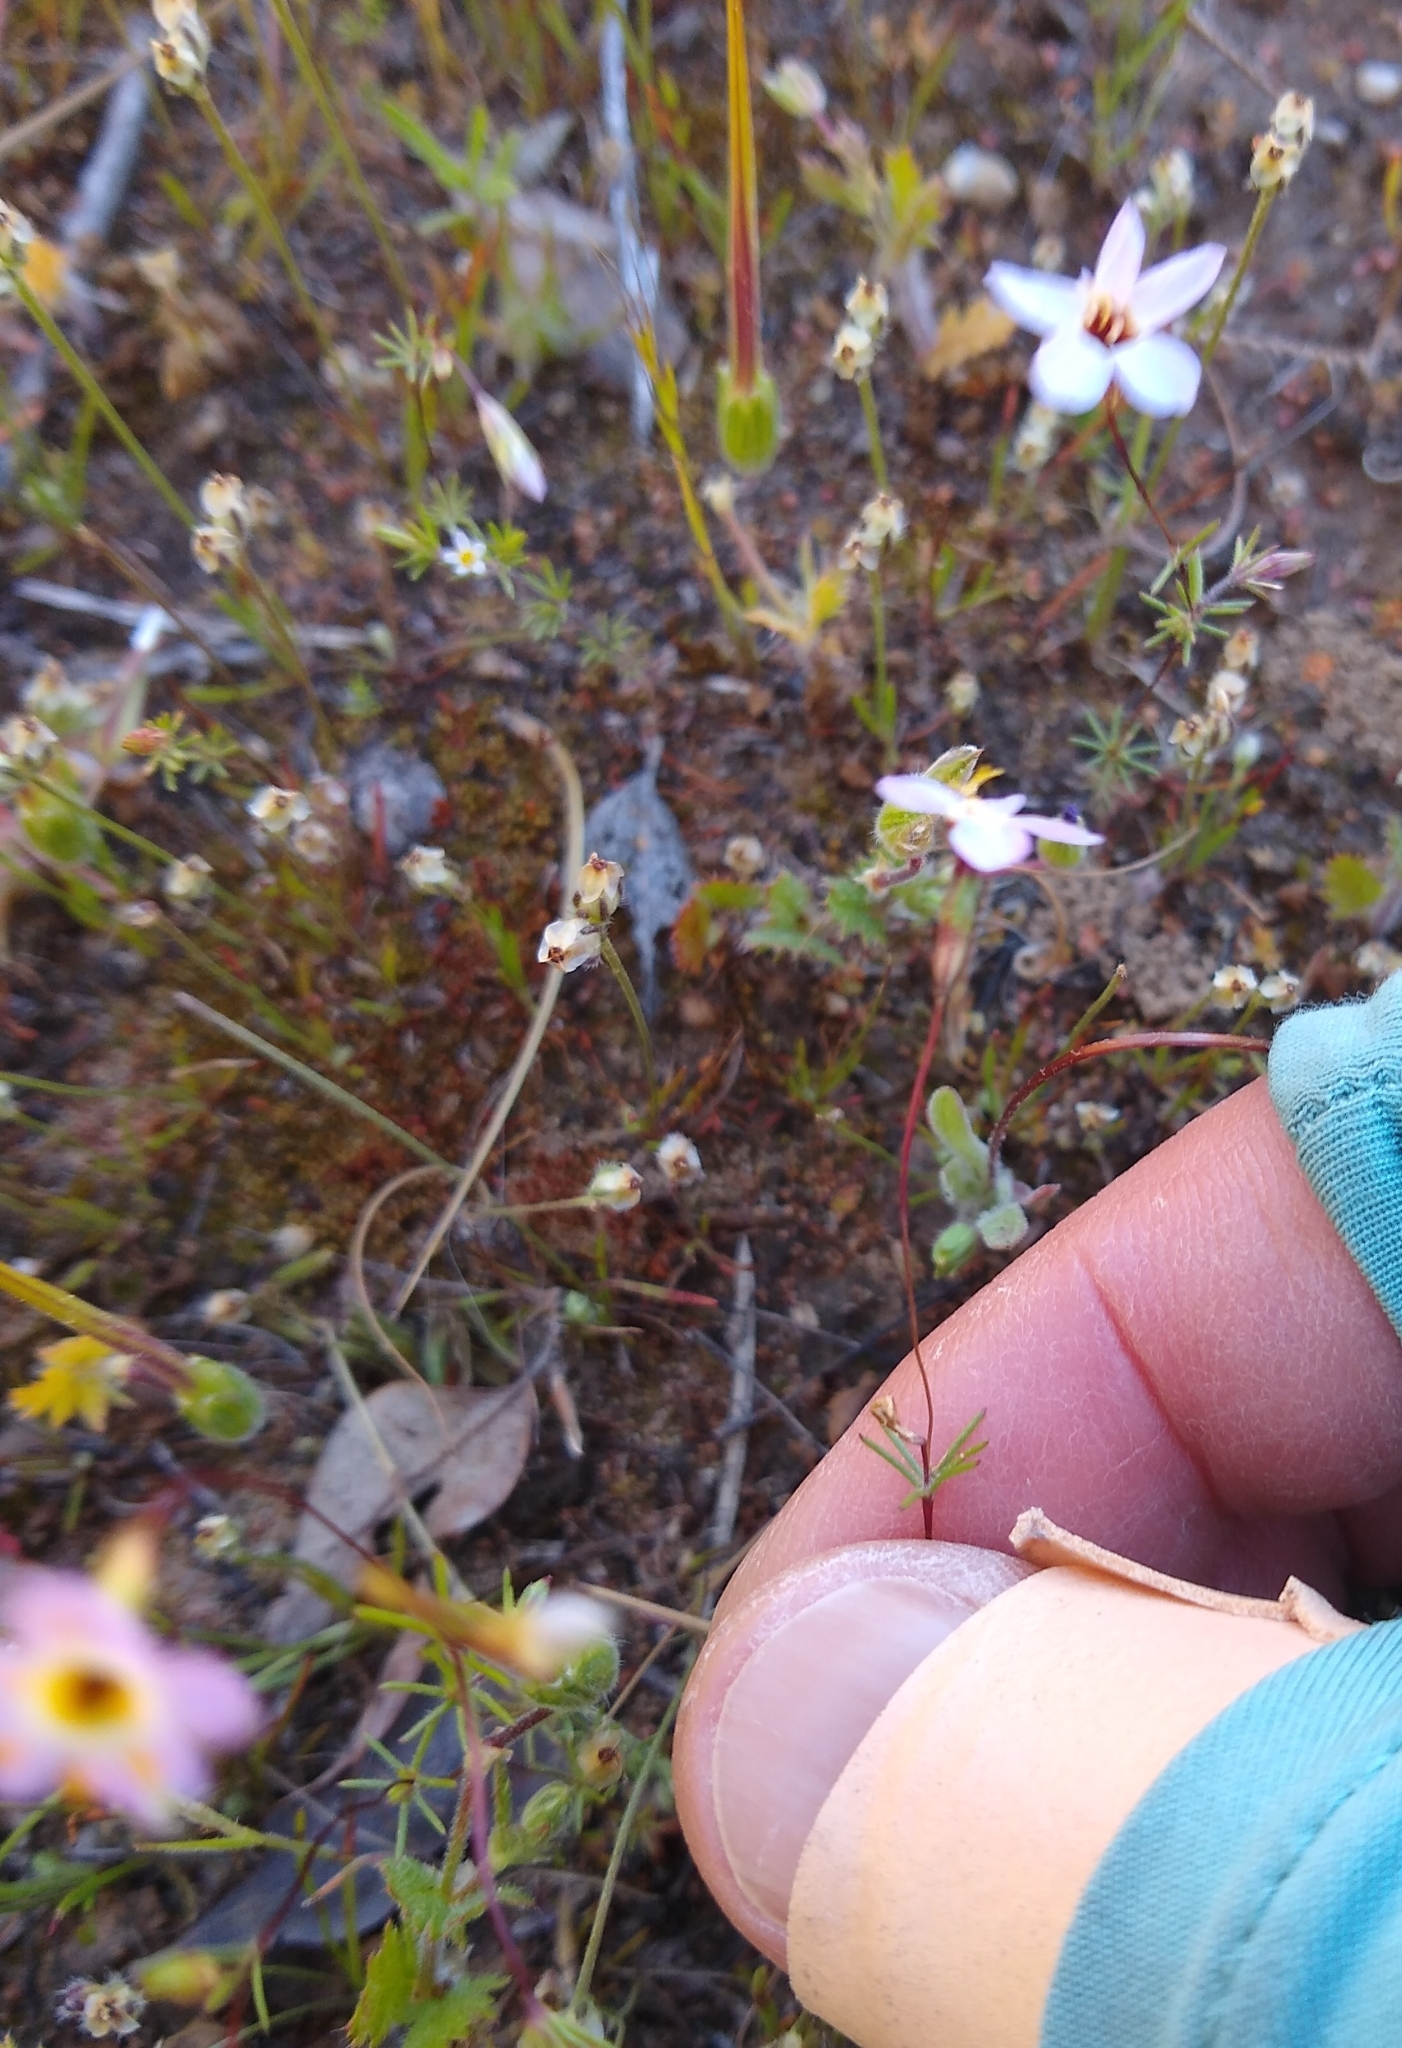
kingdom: Plantae
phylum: Tracheophyta
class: Magnoliopsida
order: Ericales
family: Polemoniaceae
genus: Leptosiphon
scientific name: Leptosiphon ambiguus
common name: Serpentine linanthus
